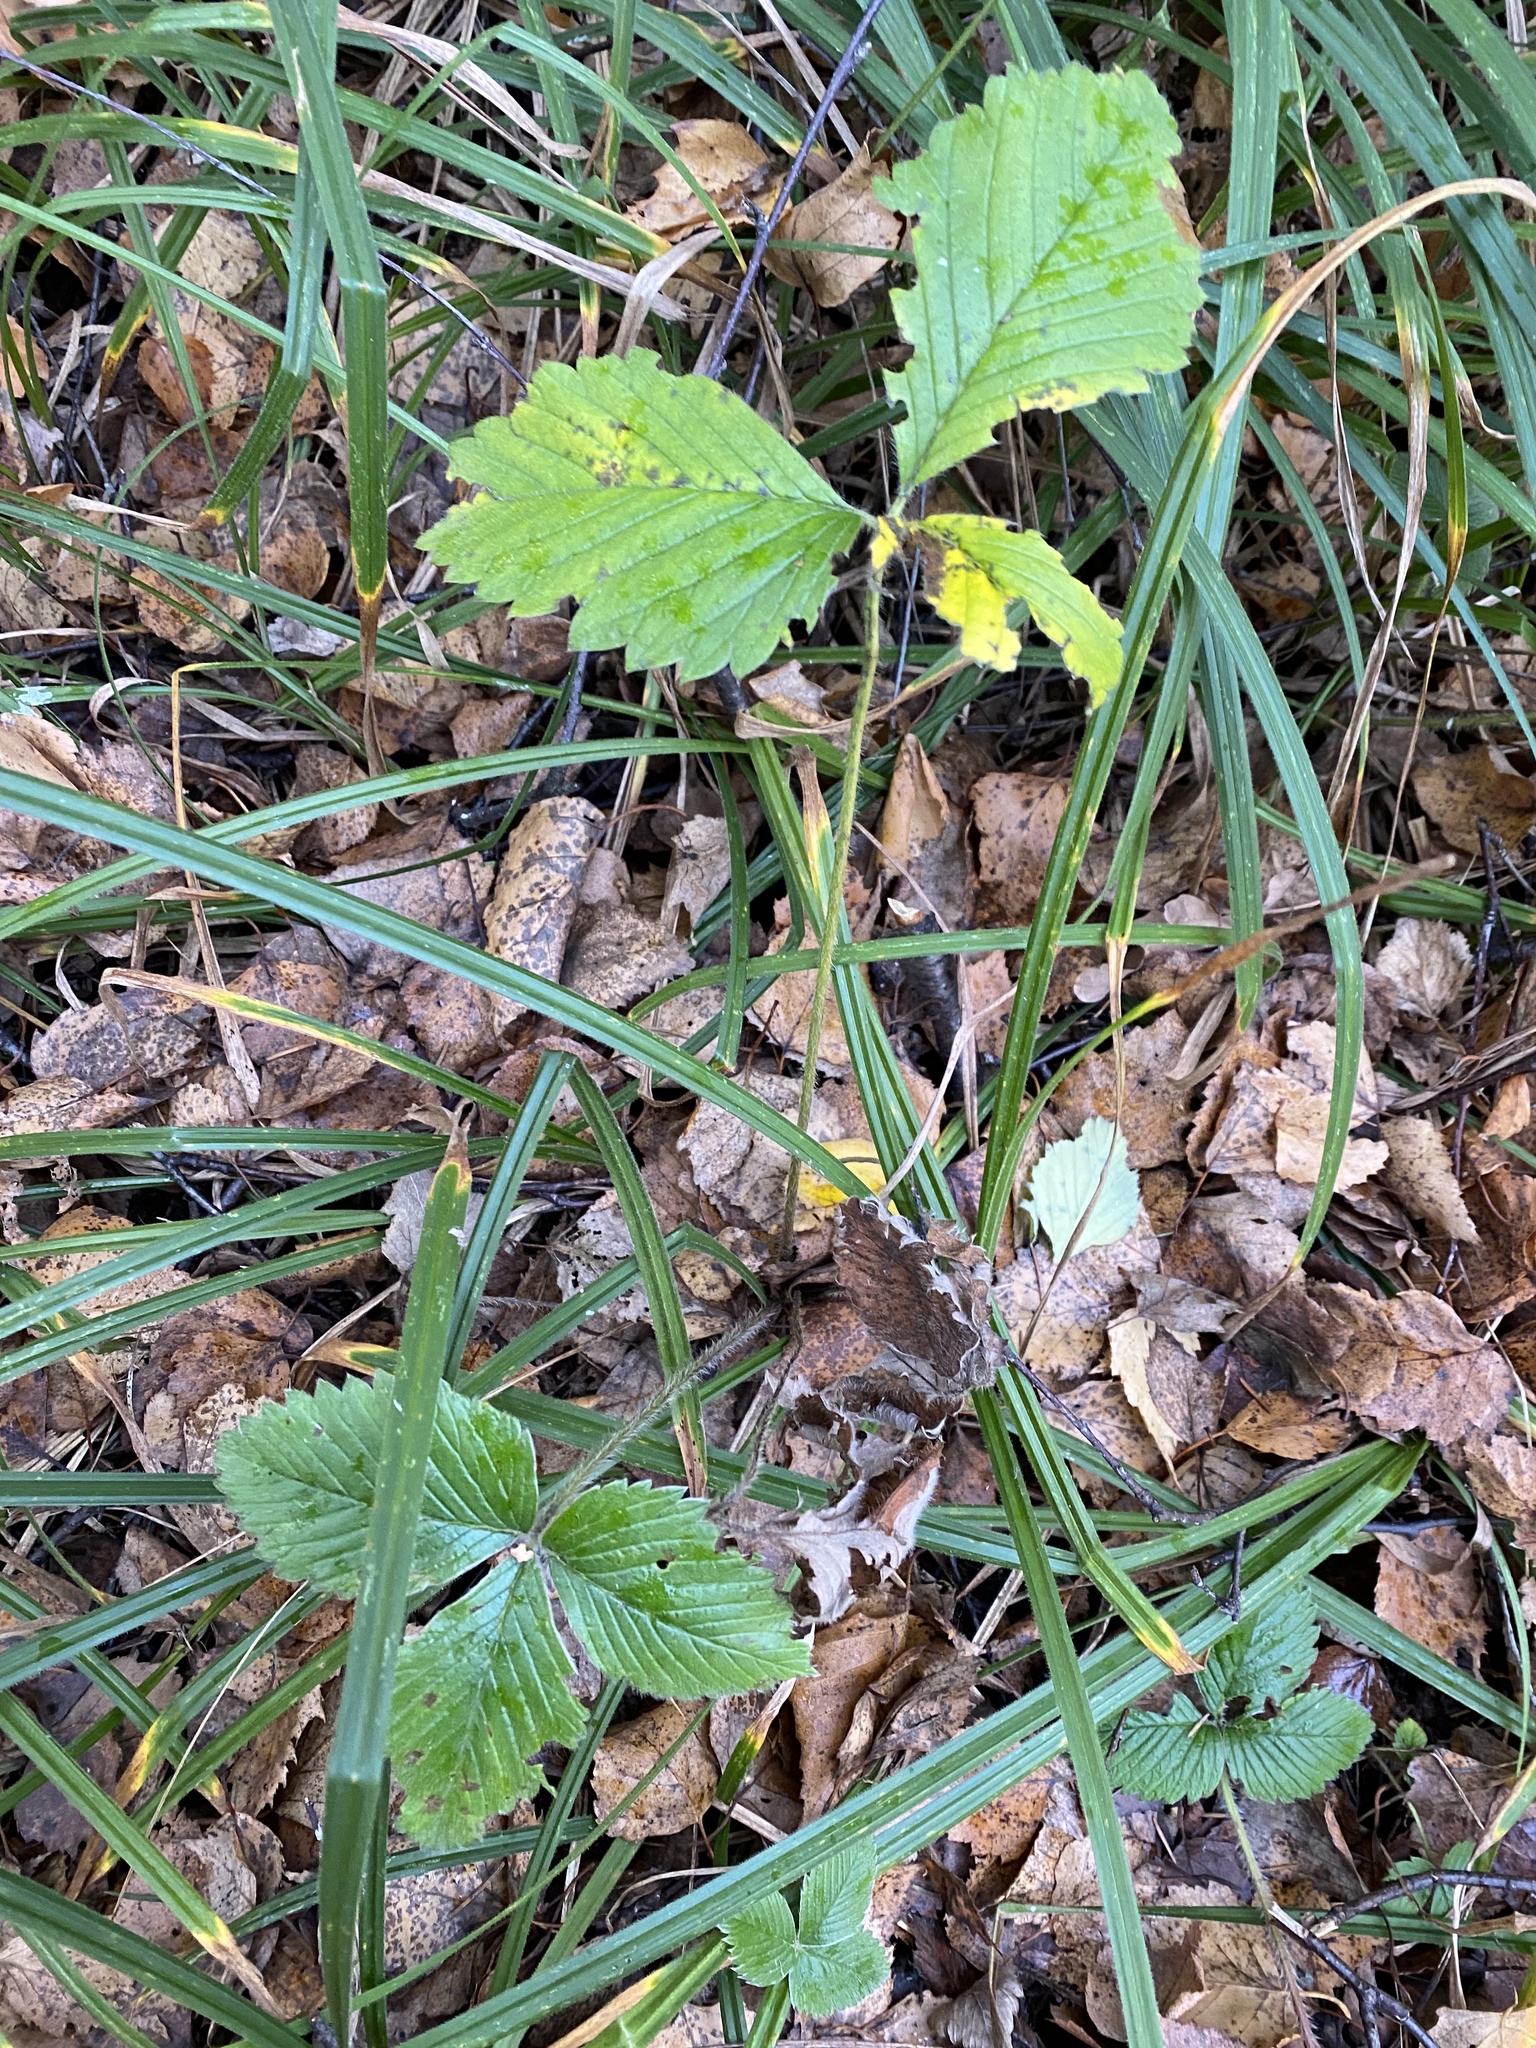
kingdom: Plantae
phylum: Tracheophyta
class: Magnoliopsida
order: Rosales
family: Rosaceae
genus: Fragaria
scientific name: Fragaria moschata
